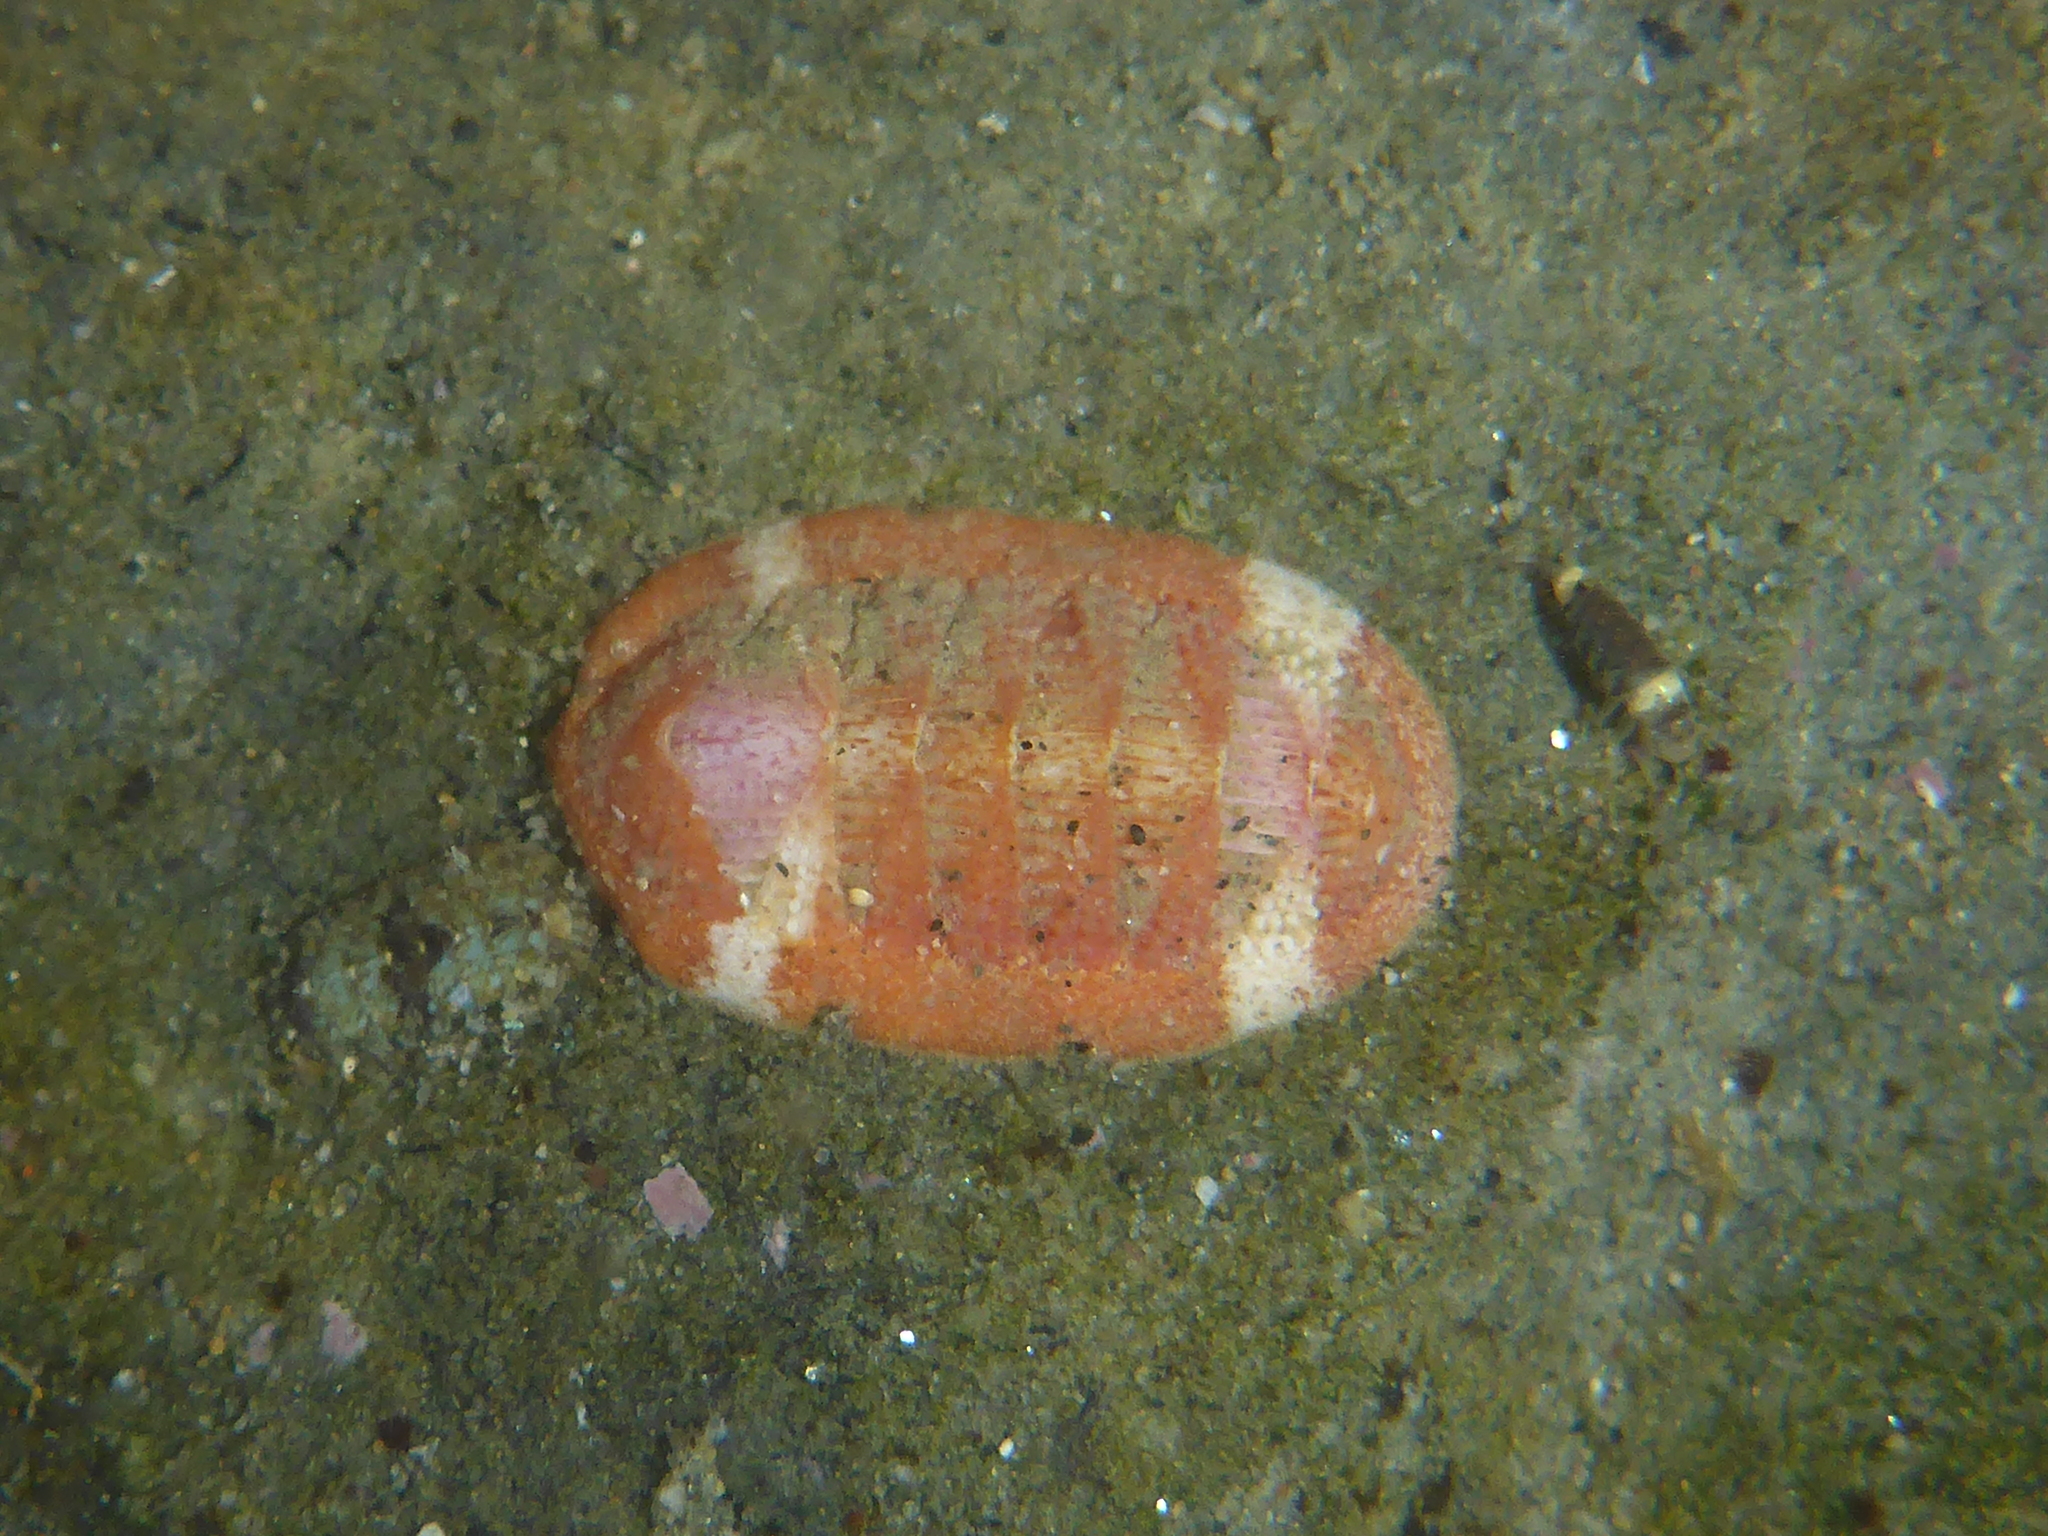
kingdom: Animalia
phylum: Mollusca
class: Polyplacophora
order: Chitonida
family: Ischnochitonidae
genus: Lepidozona
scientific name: Lepidozona mertensii
